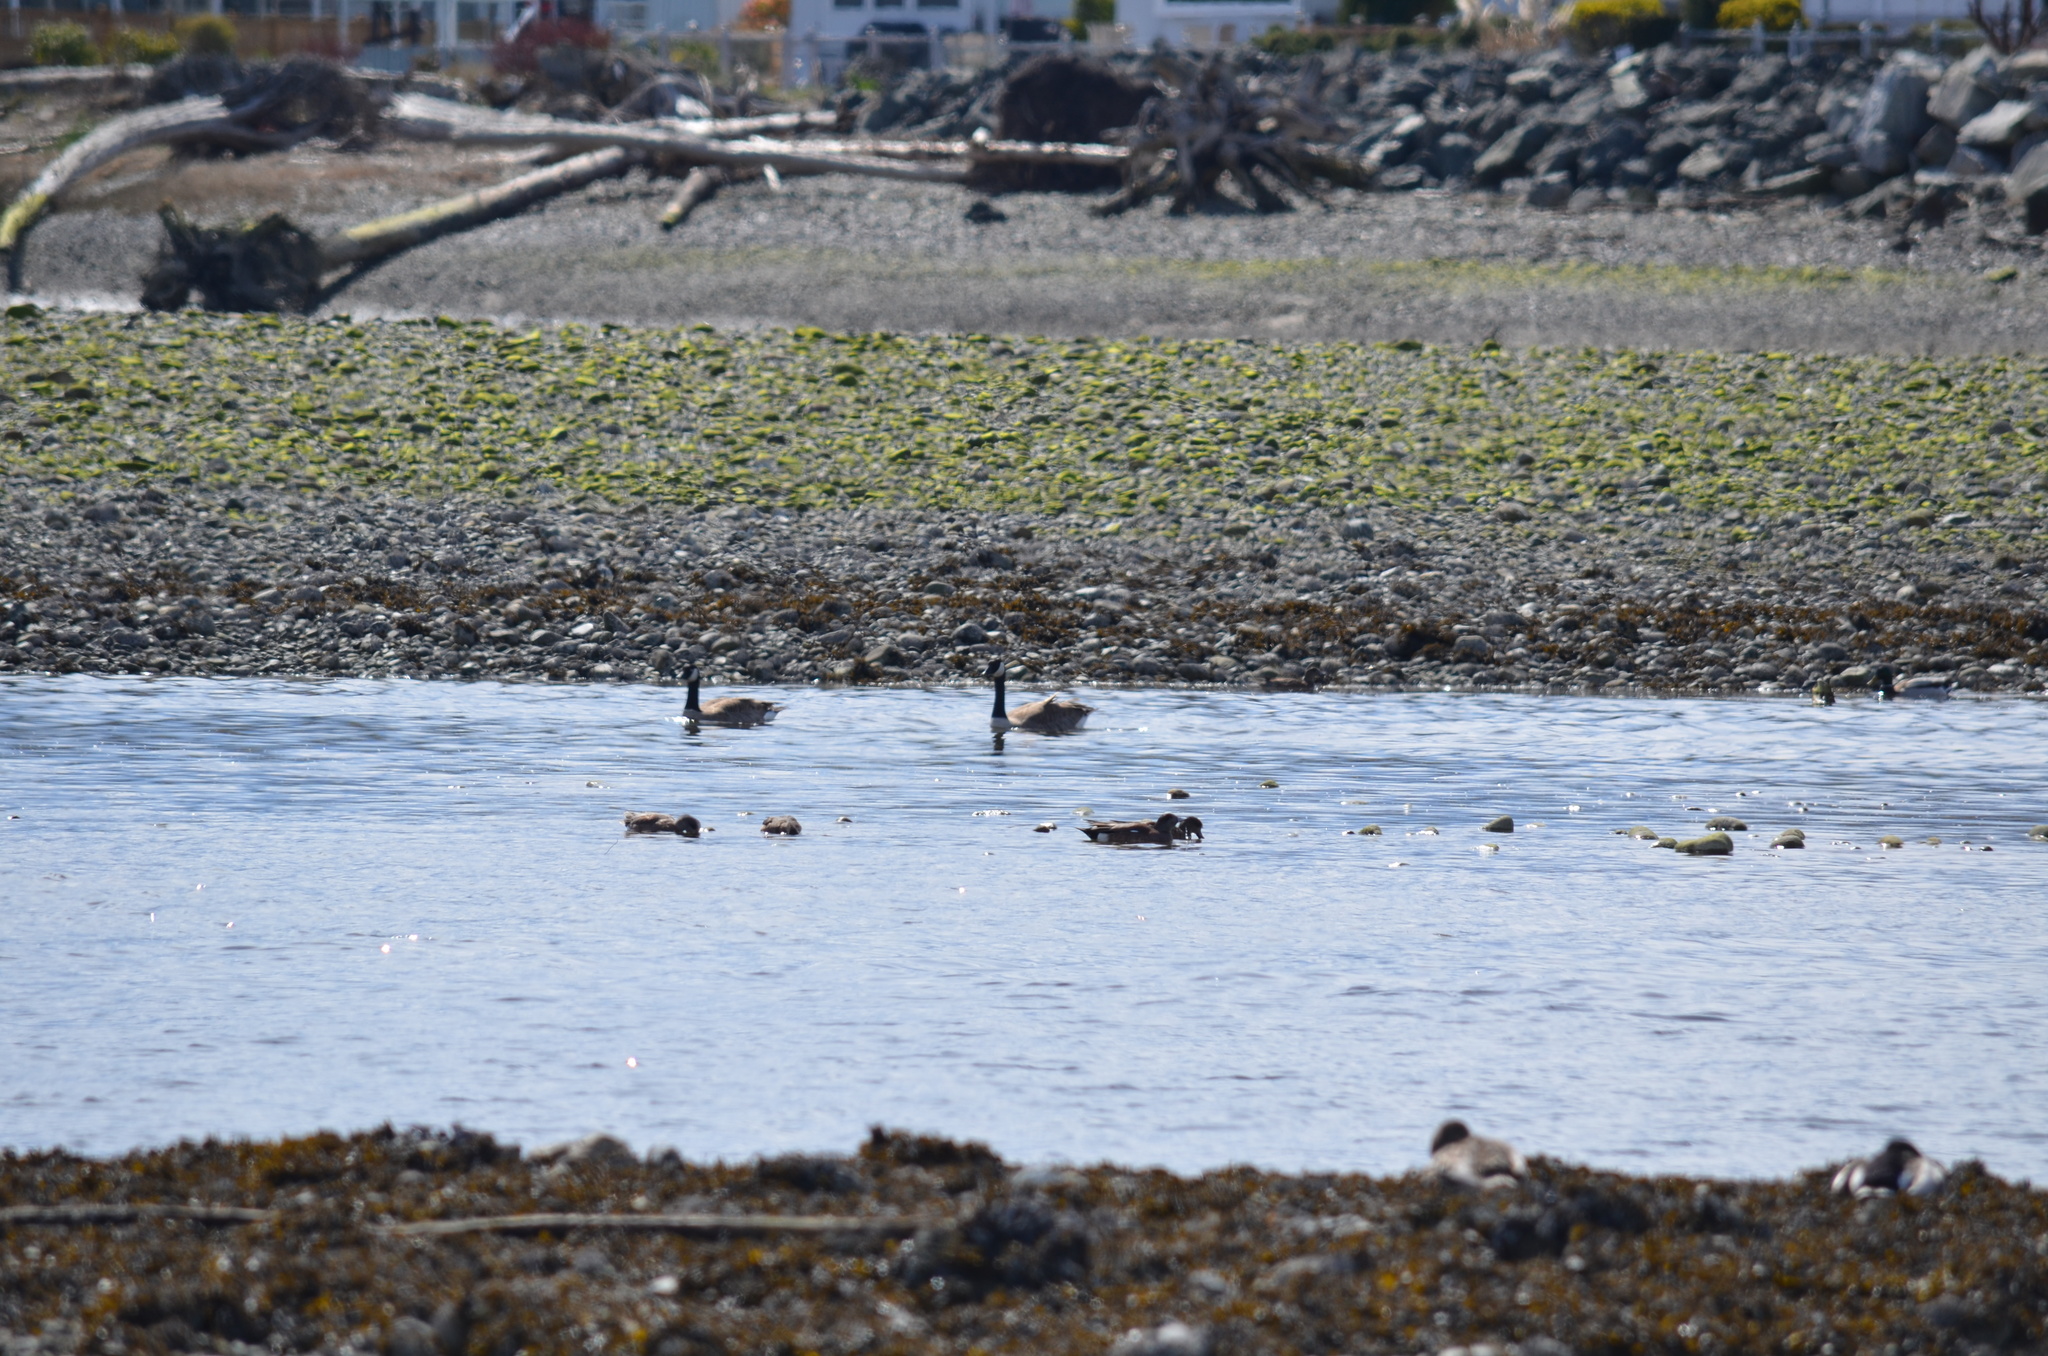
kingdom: Animalia
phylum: Chordata
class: Aves
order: Anseriformes
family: Anatidae
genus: Branta
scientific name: Branta canadensis
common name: Canada goose
